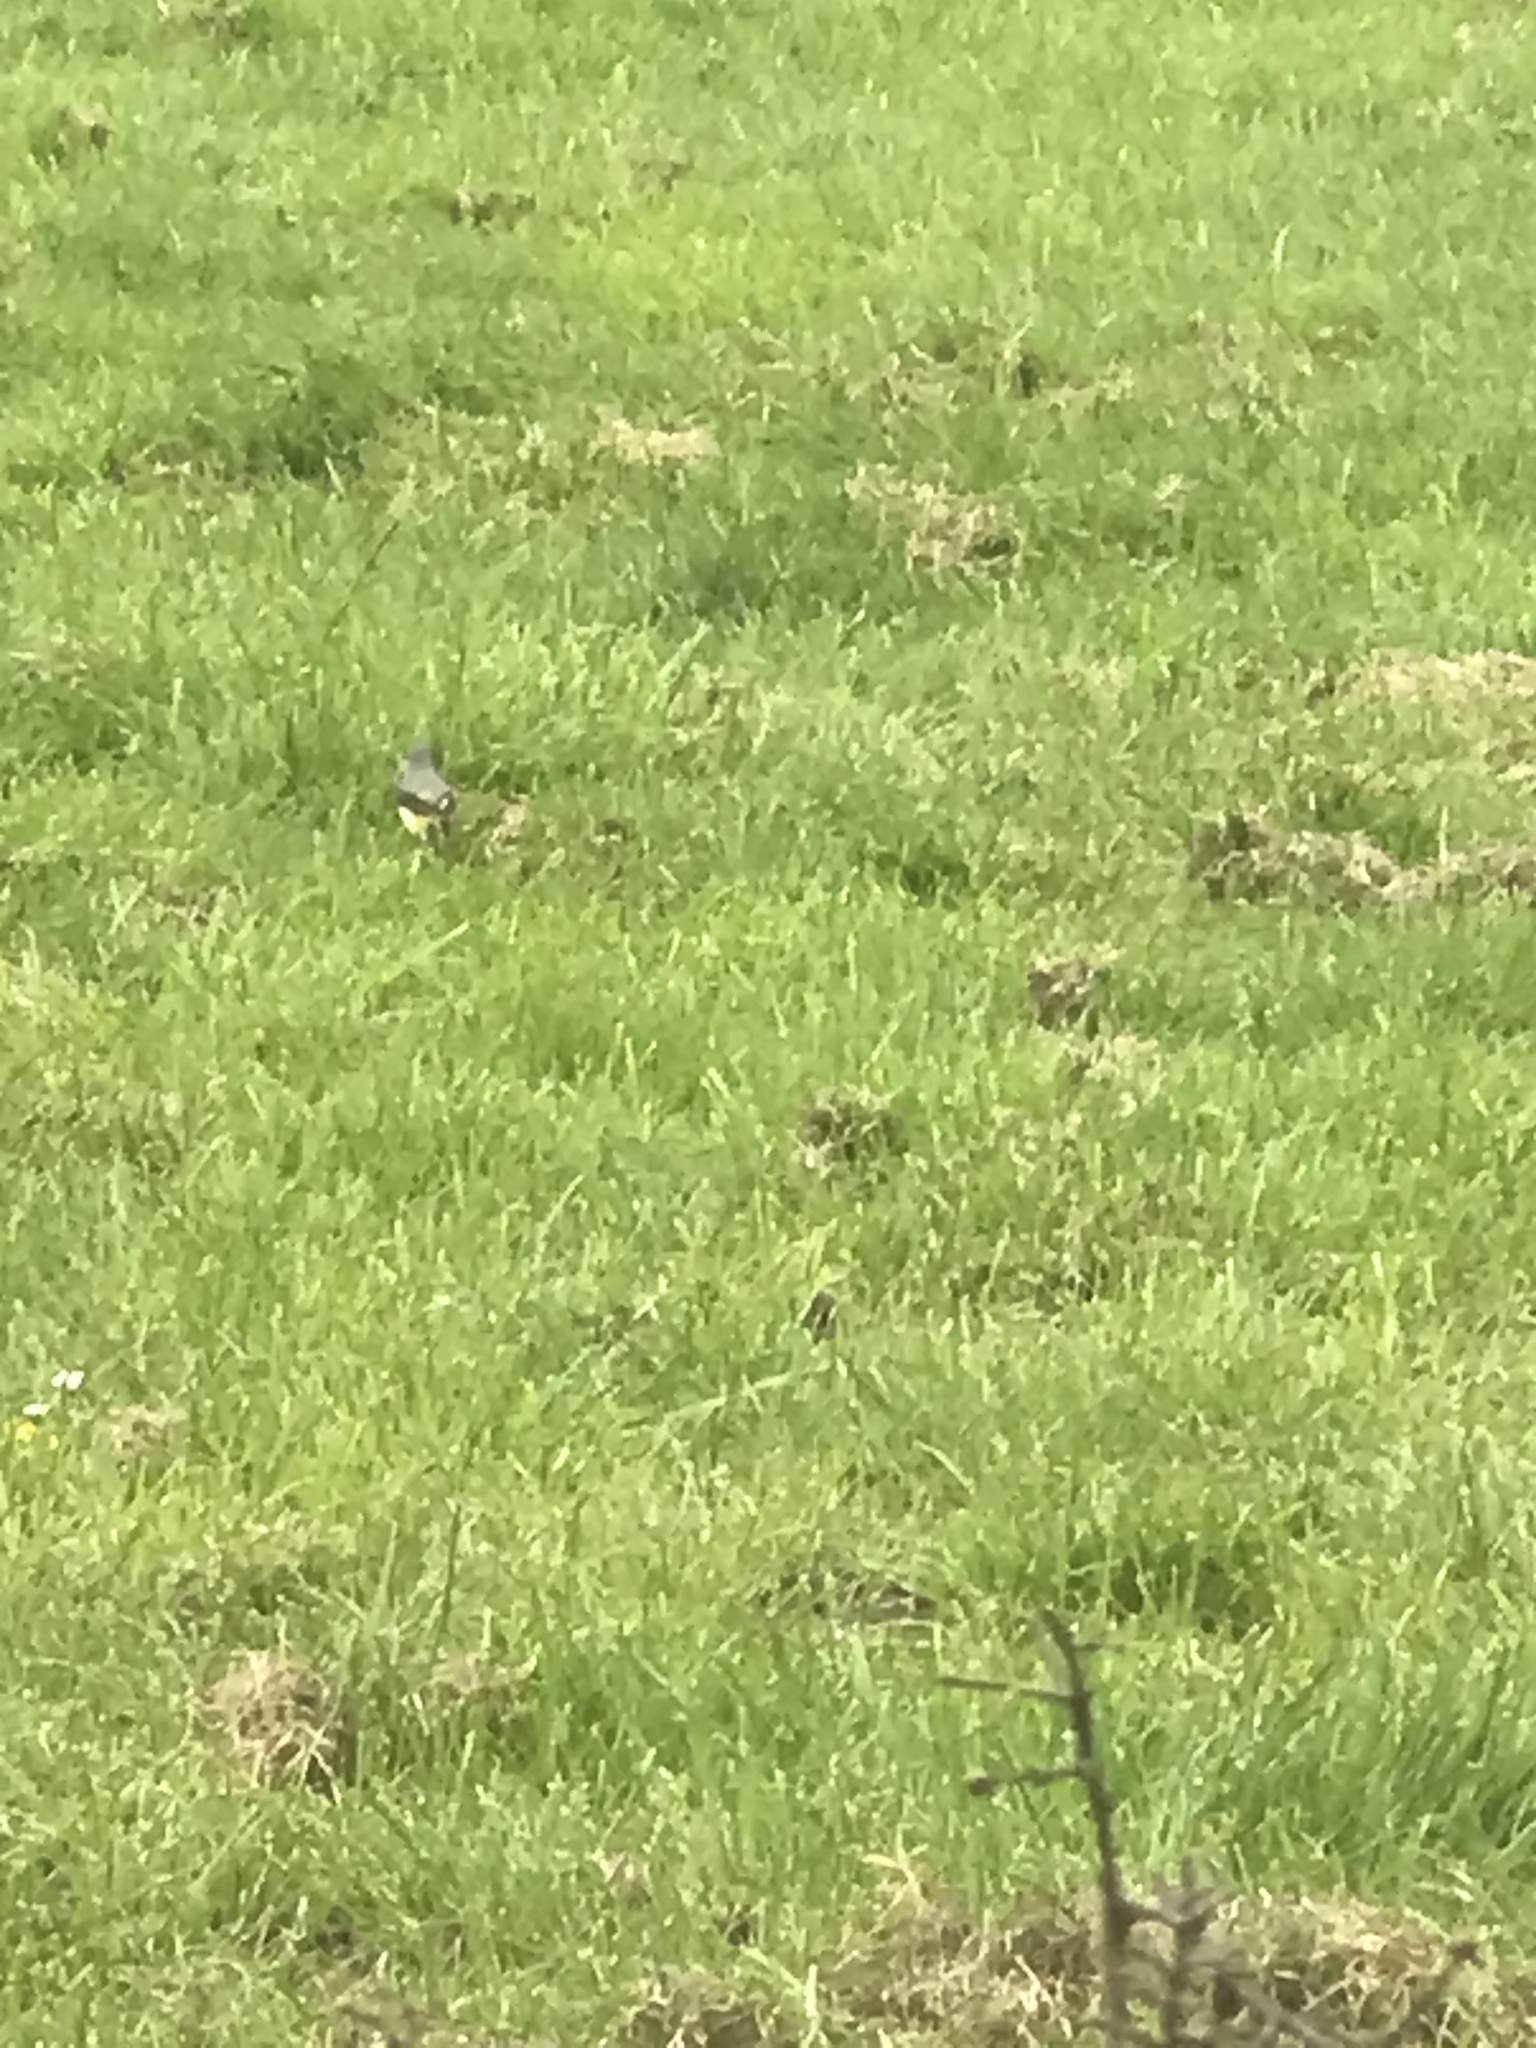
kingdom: Animalia
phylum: Chordata
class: Aves
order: Passeriformes
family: Motacillidae
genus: Motacilla
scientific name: Motacilla cinerea
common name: Grey wagtail
